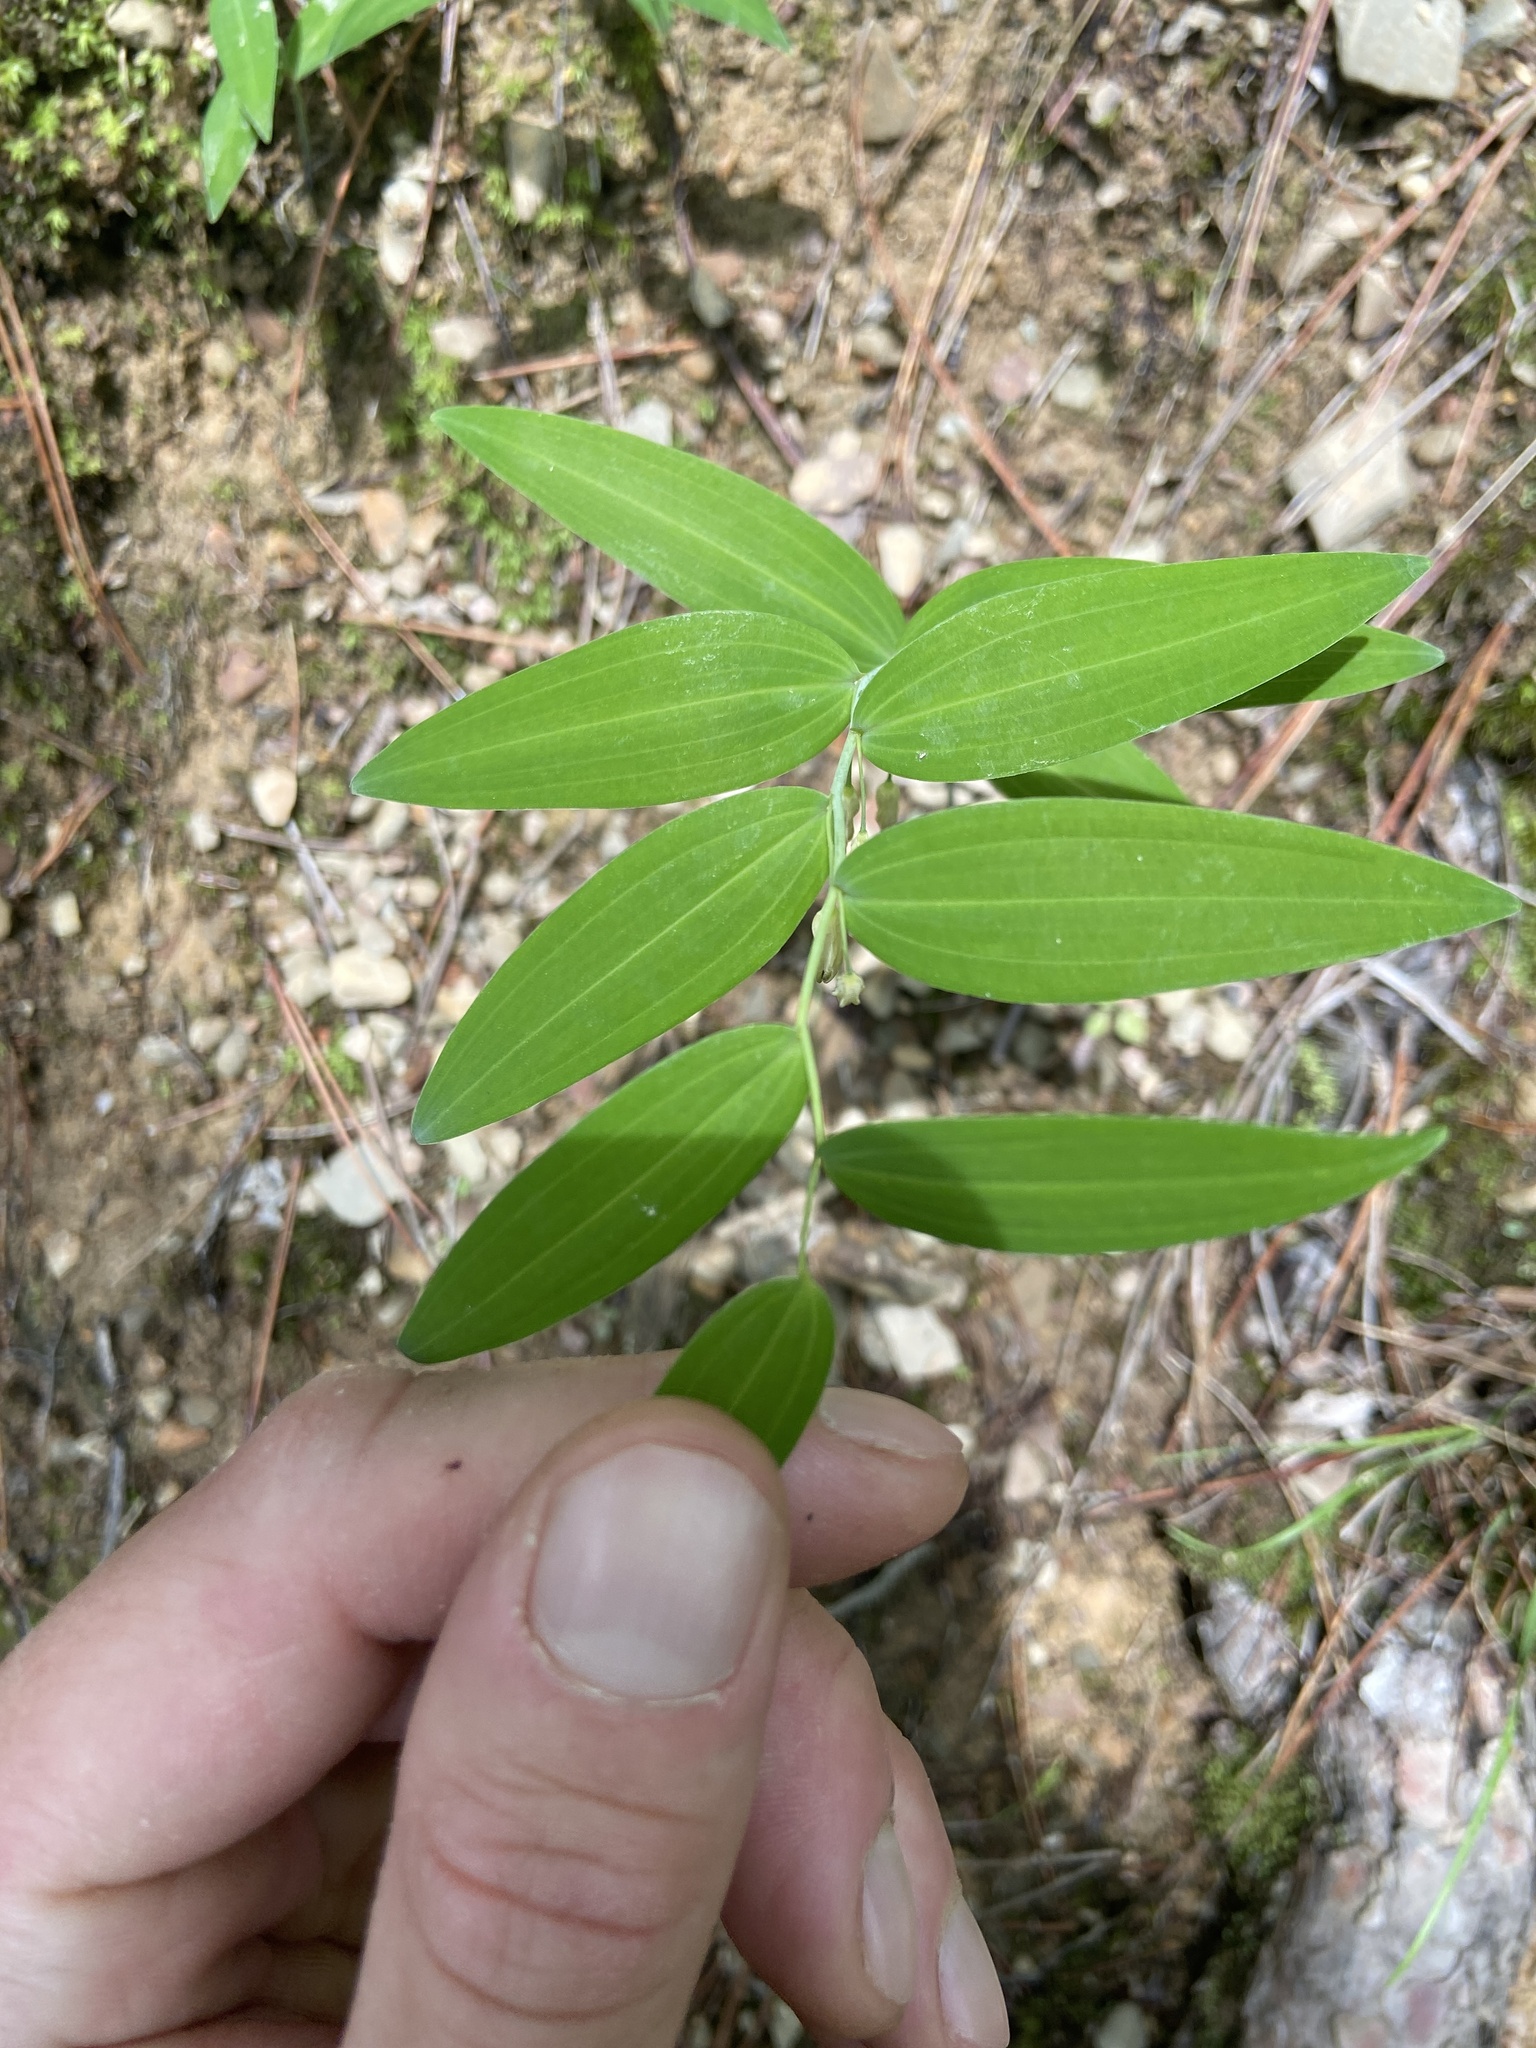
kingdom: Plantae
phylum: Tracheophyta
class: Liliopsida
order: Asparagales
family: Asparagaceae
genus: Polygonatum
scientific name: Polygonatum biflorum
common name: American solomon's-seal
